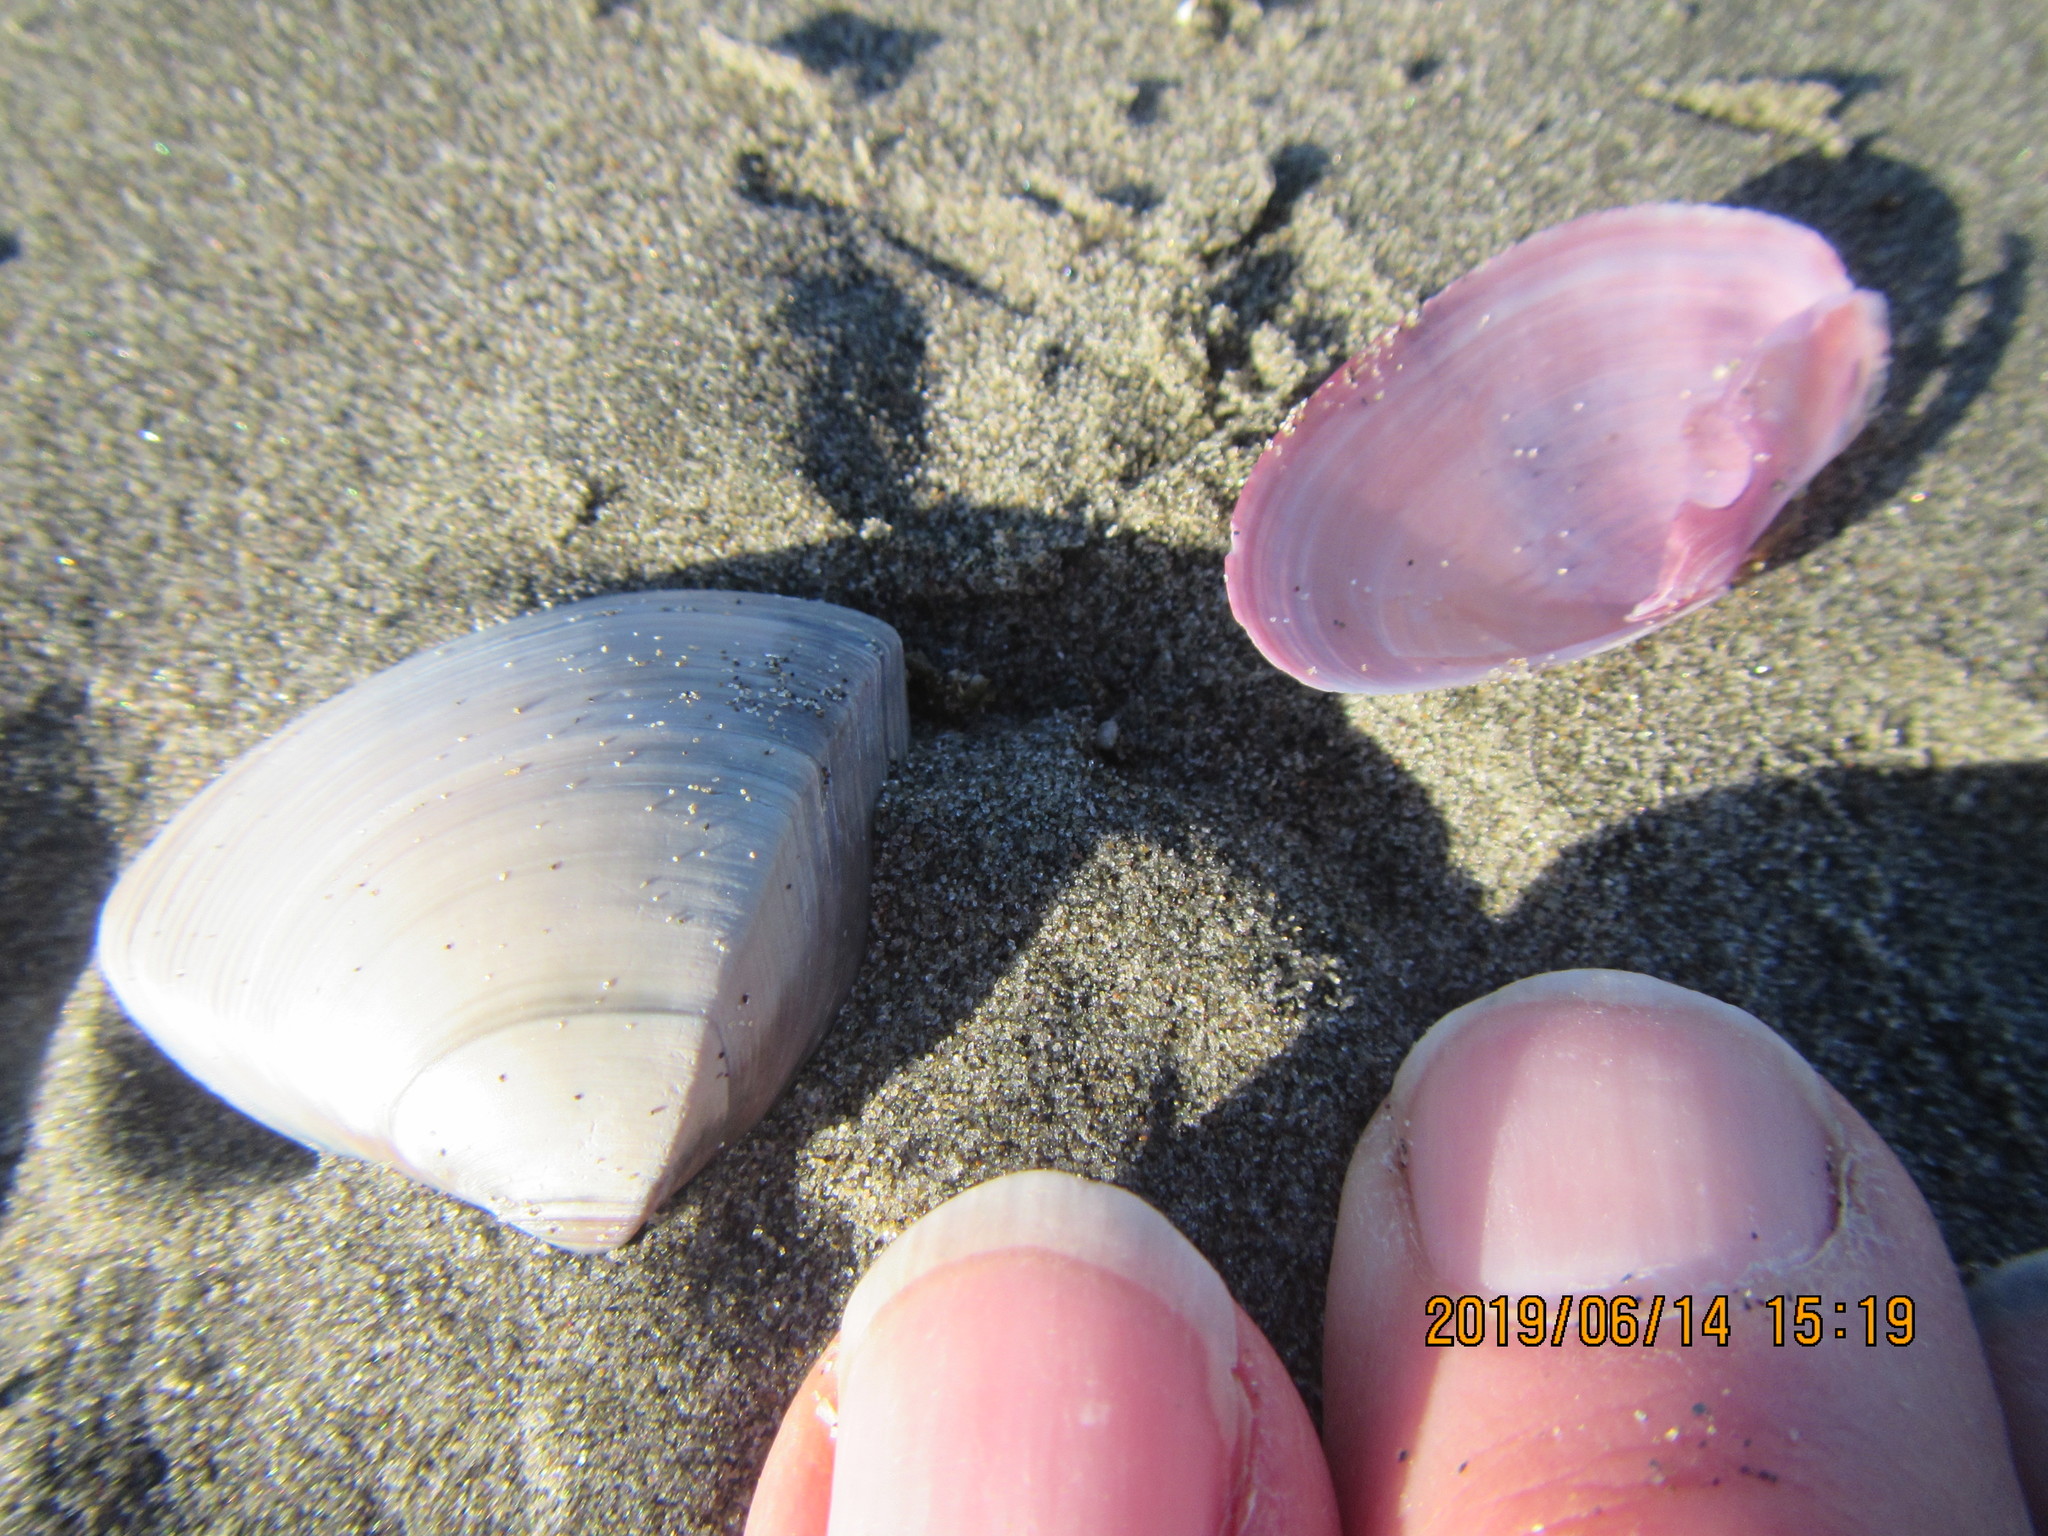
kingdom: Animalia
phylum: Mollusca
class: Bivalvia
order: Cardiida
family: Psammobiidae
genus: Gari
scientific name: Gari lineolata
